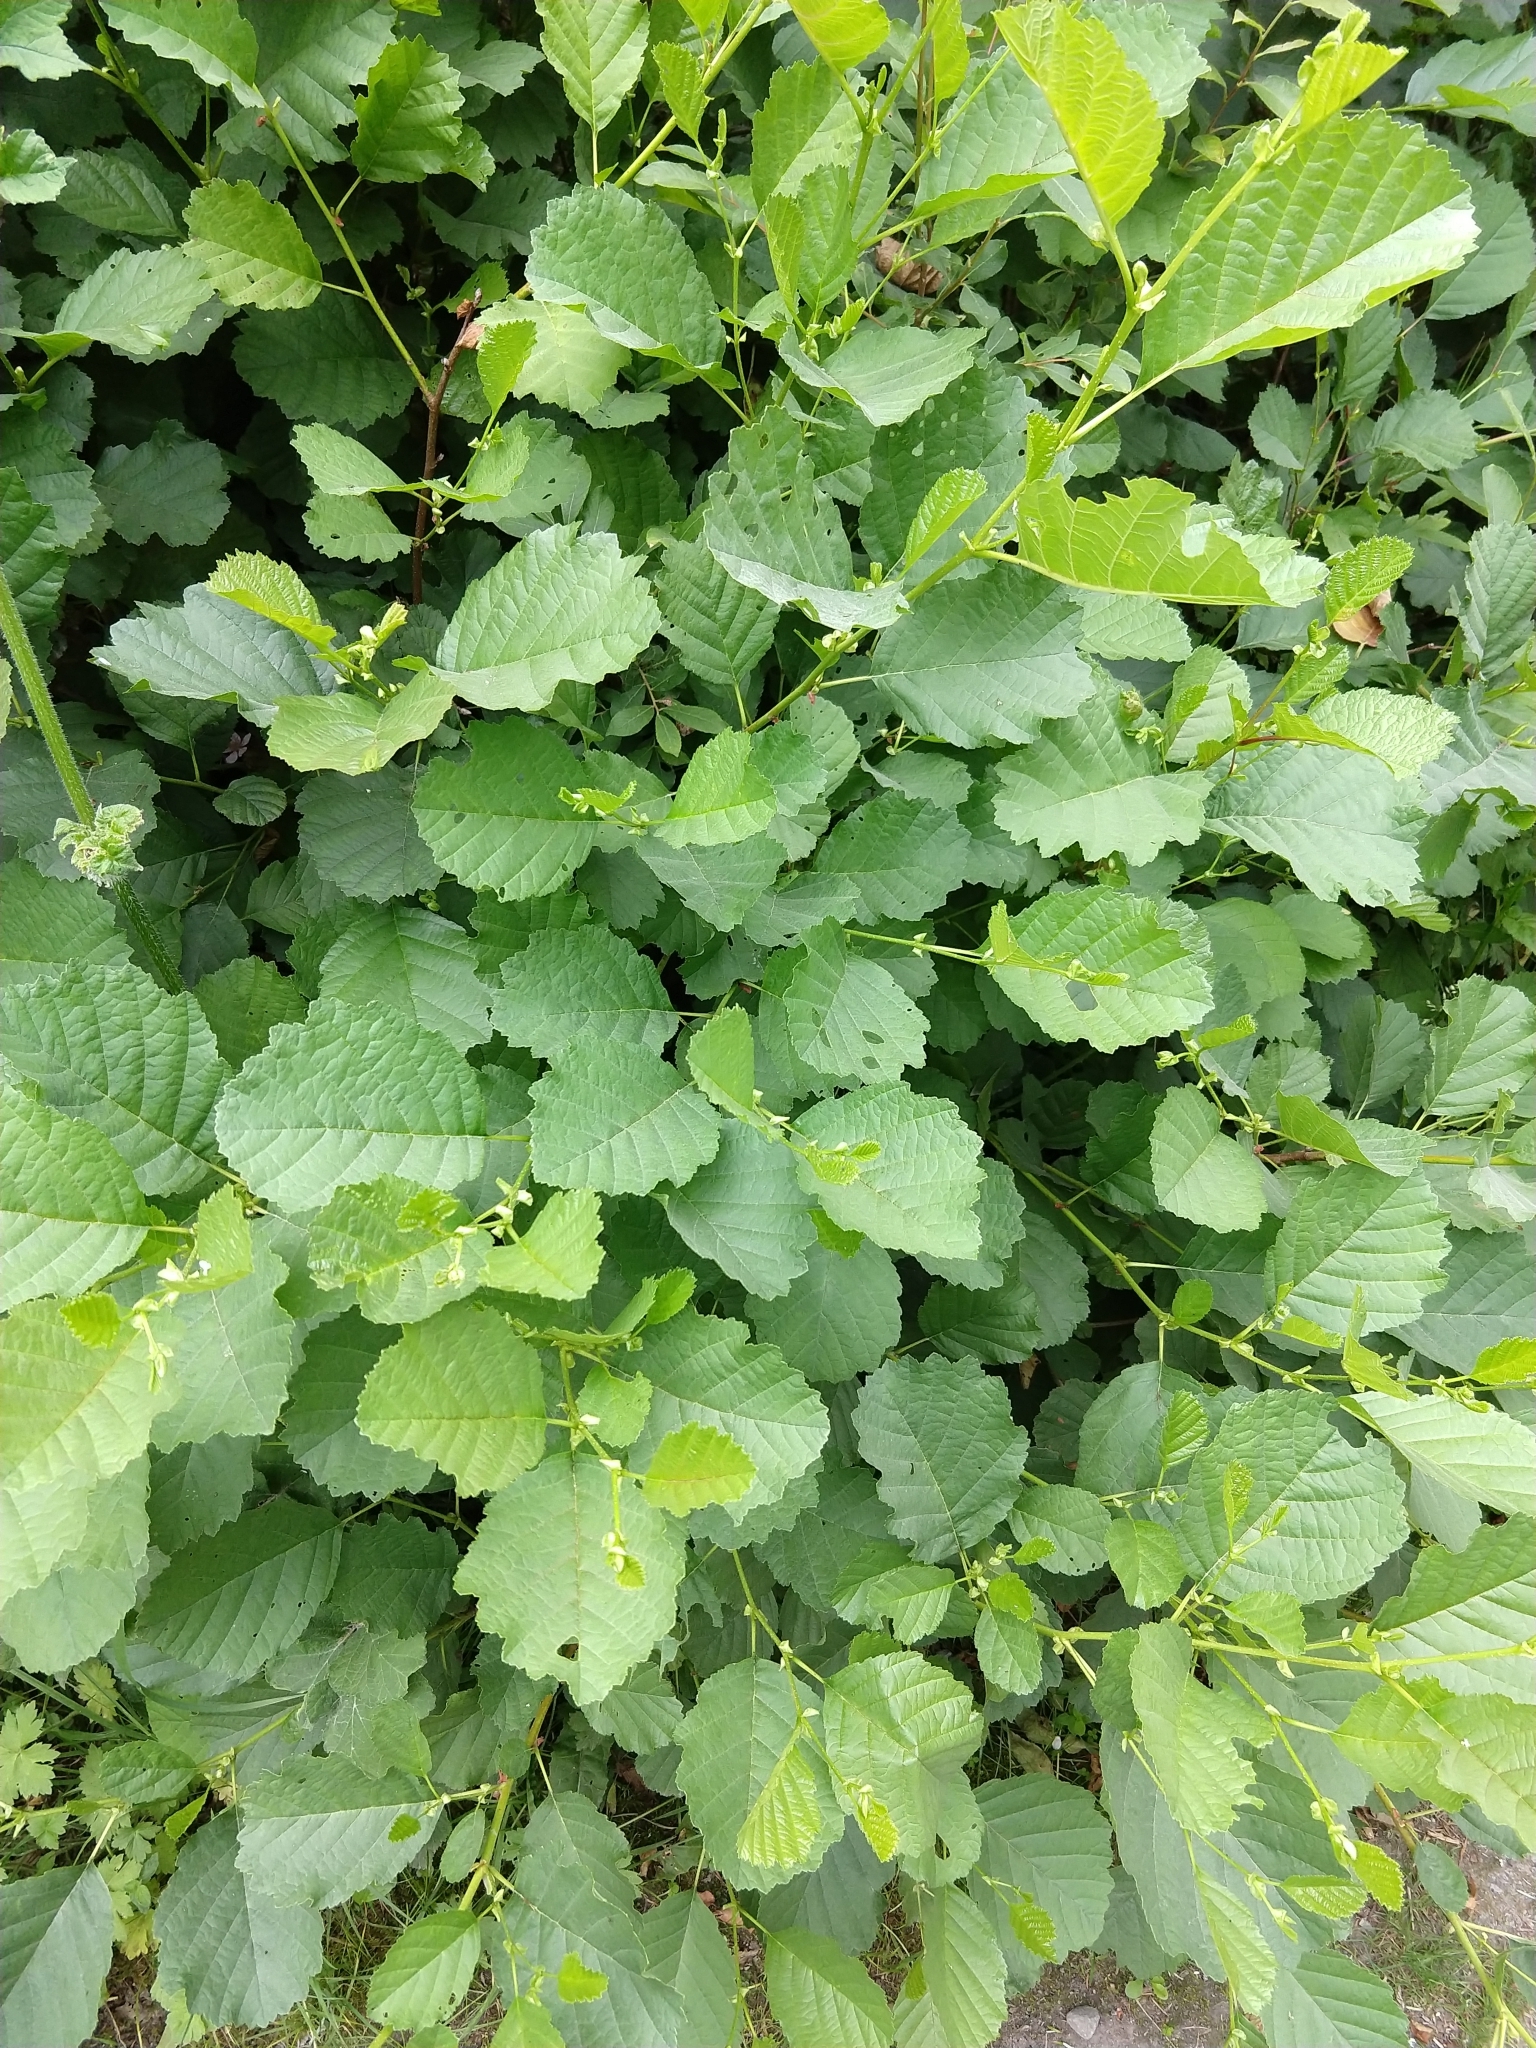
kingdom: Plantae
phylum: Tracheophyta
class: Magnoliopsida
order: Fagales
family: Betulaceae
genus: Alnus
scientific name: Alnus glutinosa
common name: Black alder
